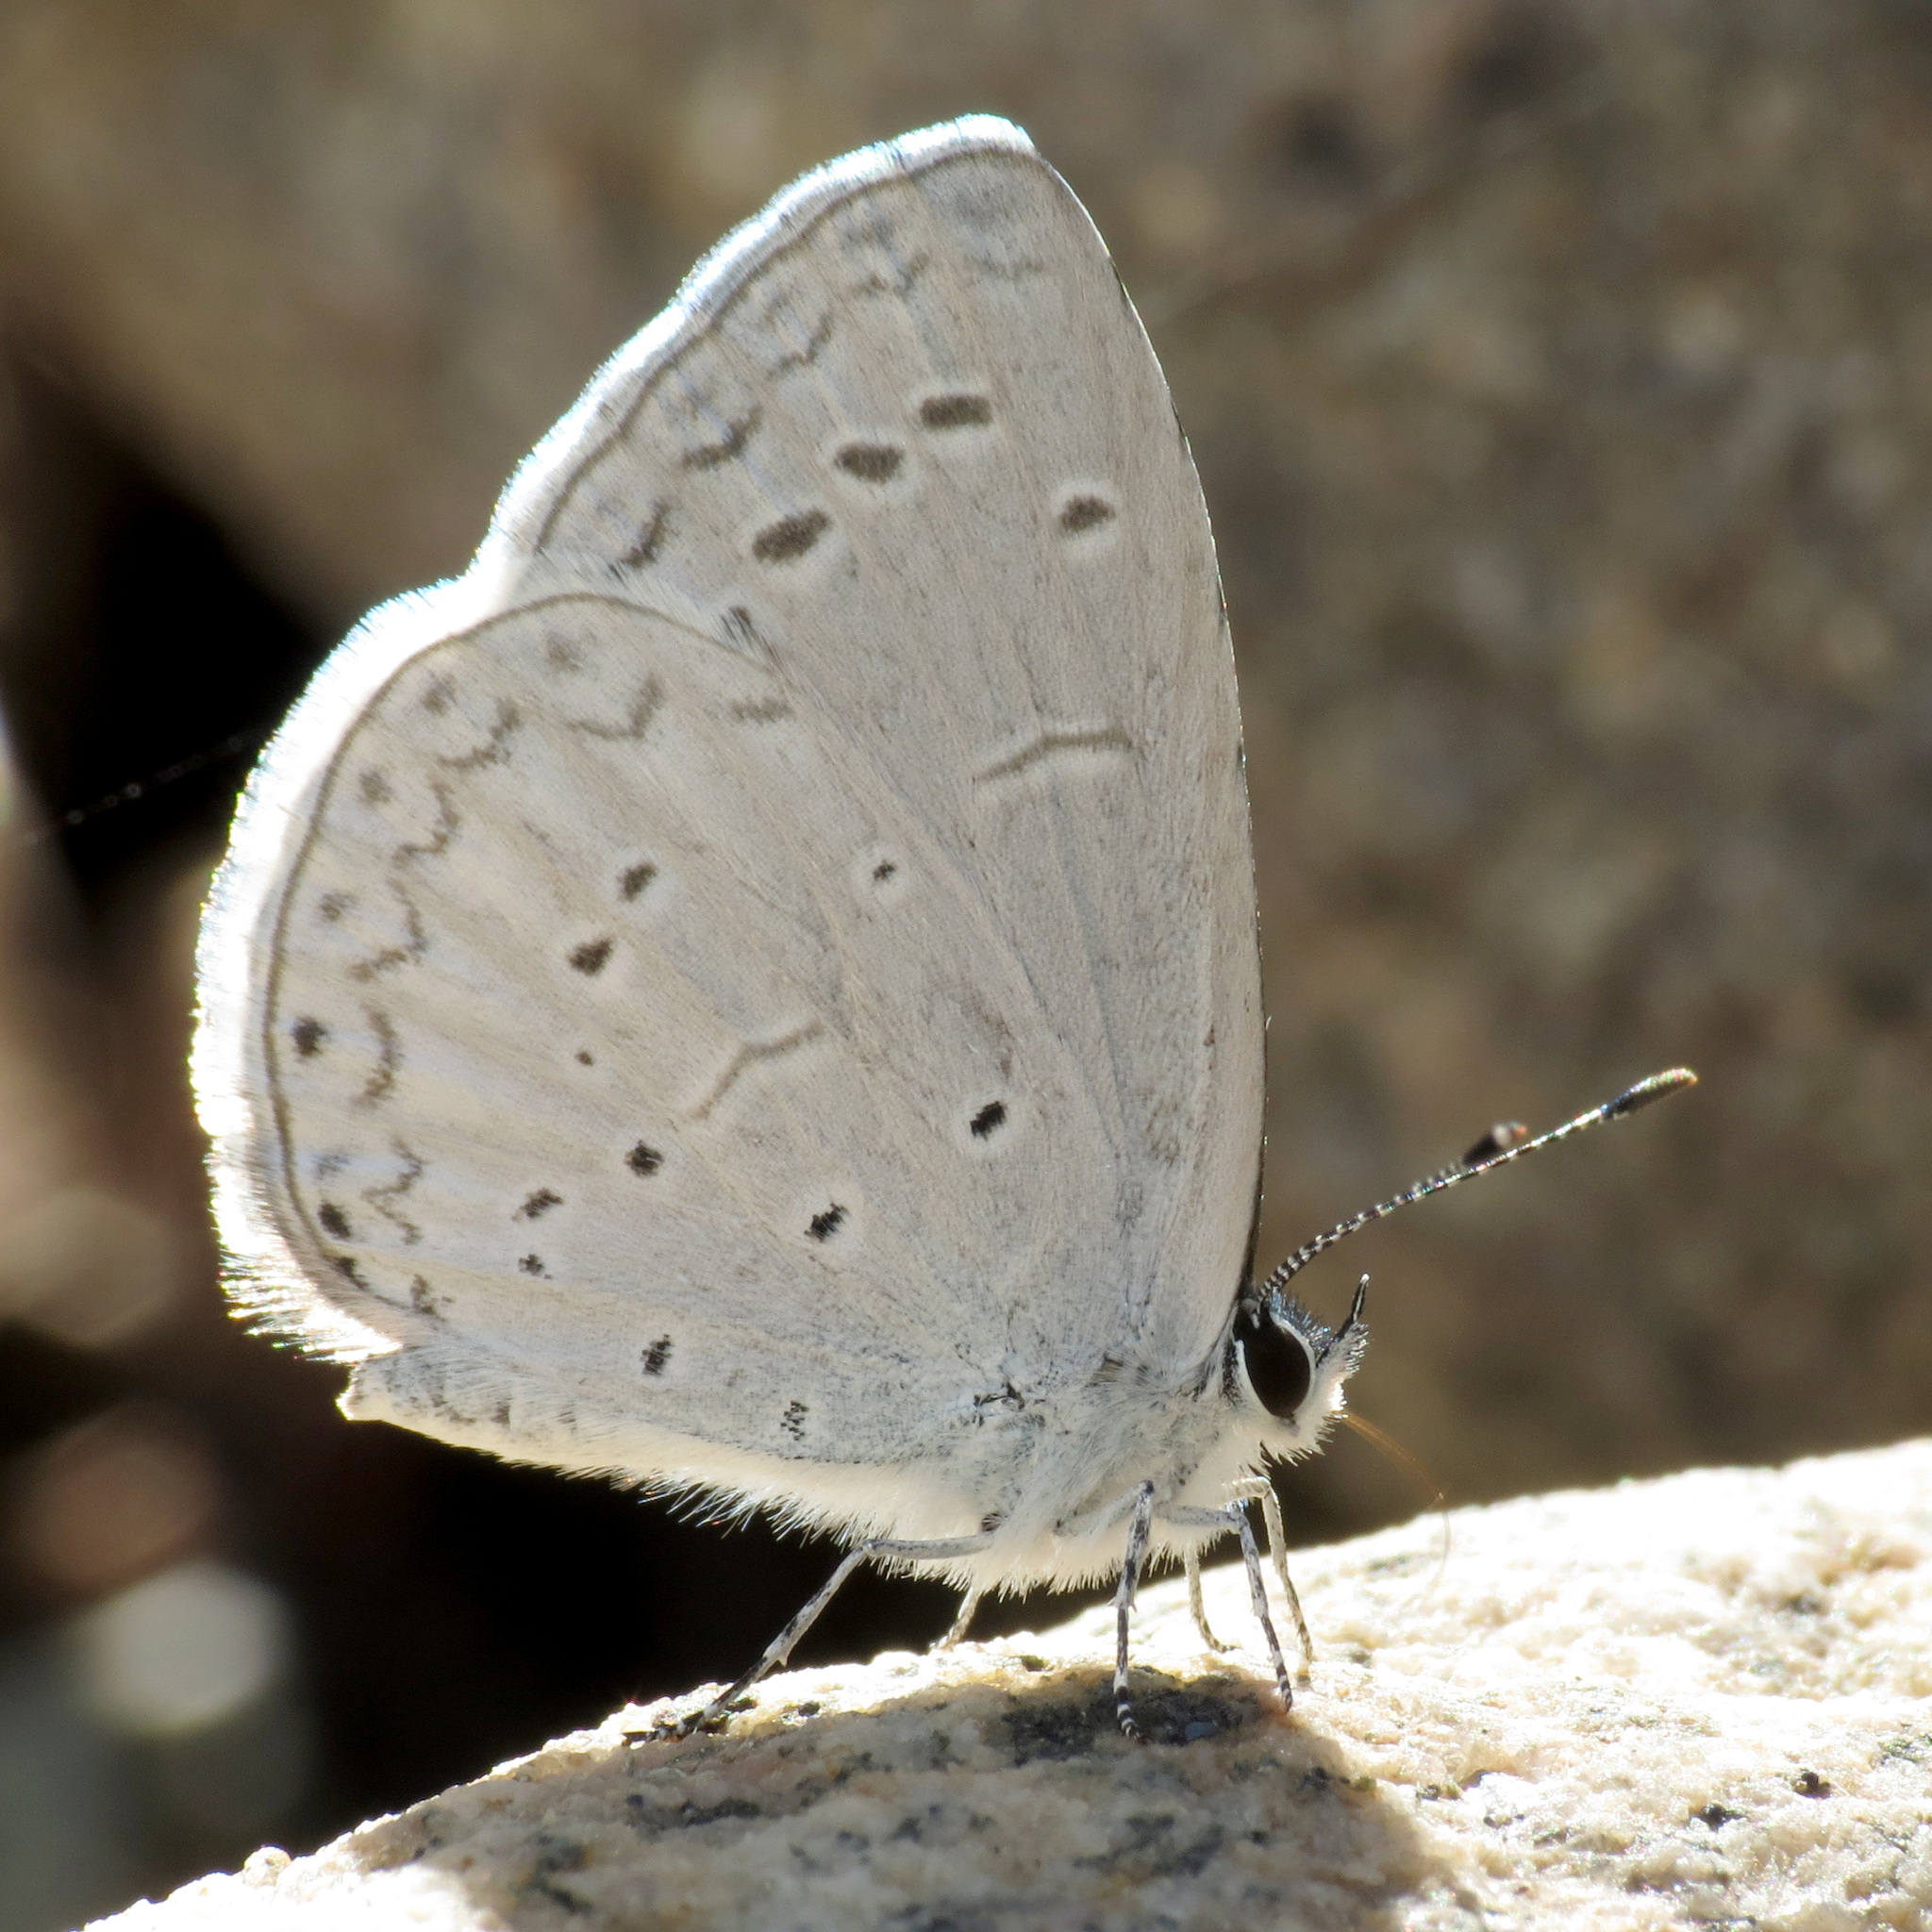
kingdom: Animalia
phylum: Arthropoda
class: Insecta
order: Lepidoptera
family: Lycaenidae
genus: Celastrina
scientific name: Celastrina ladon
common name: Spring azure
